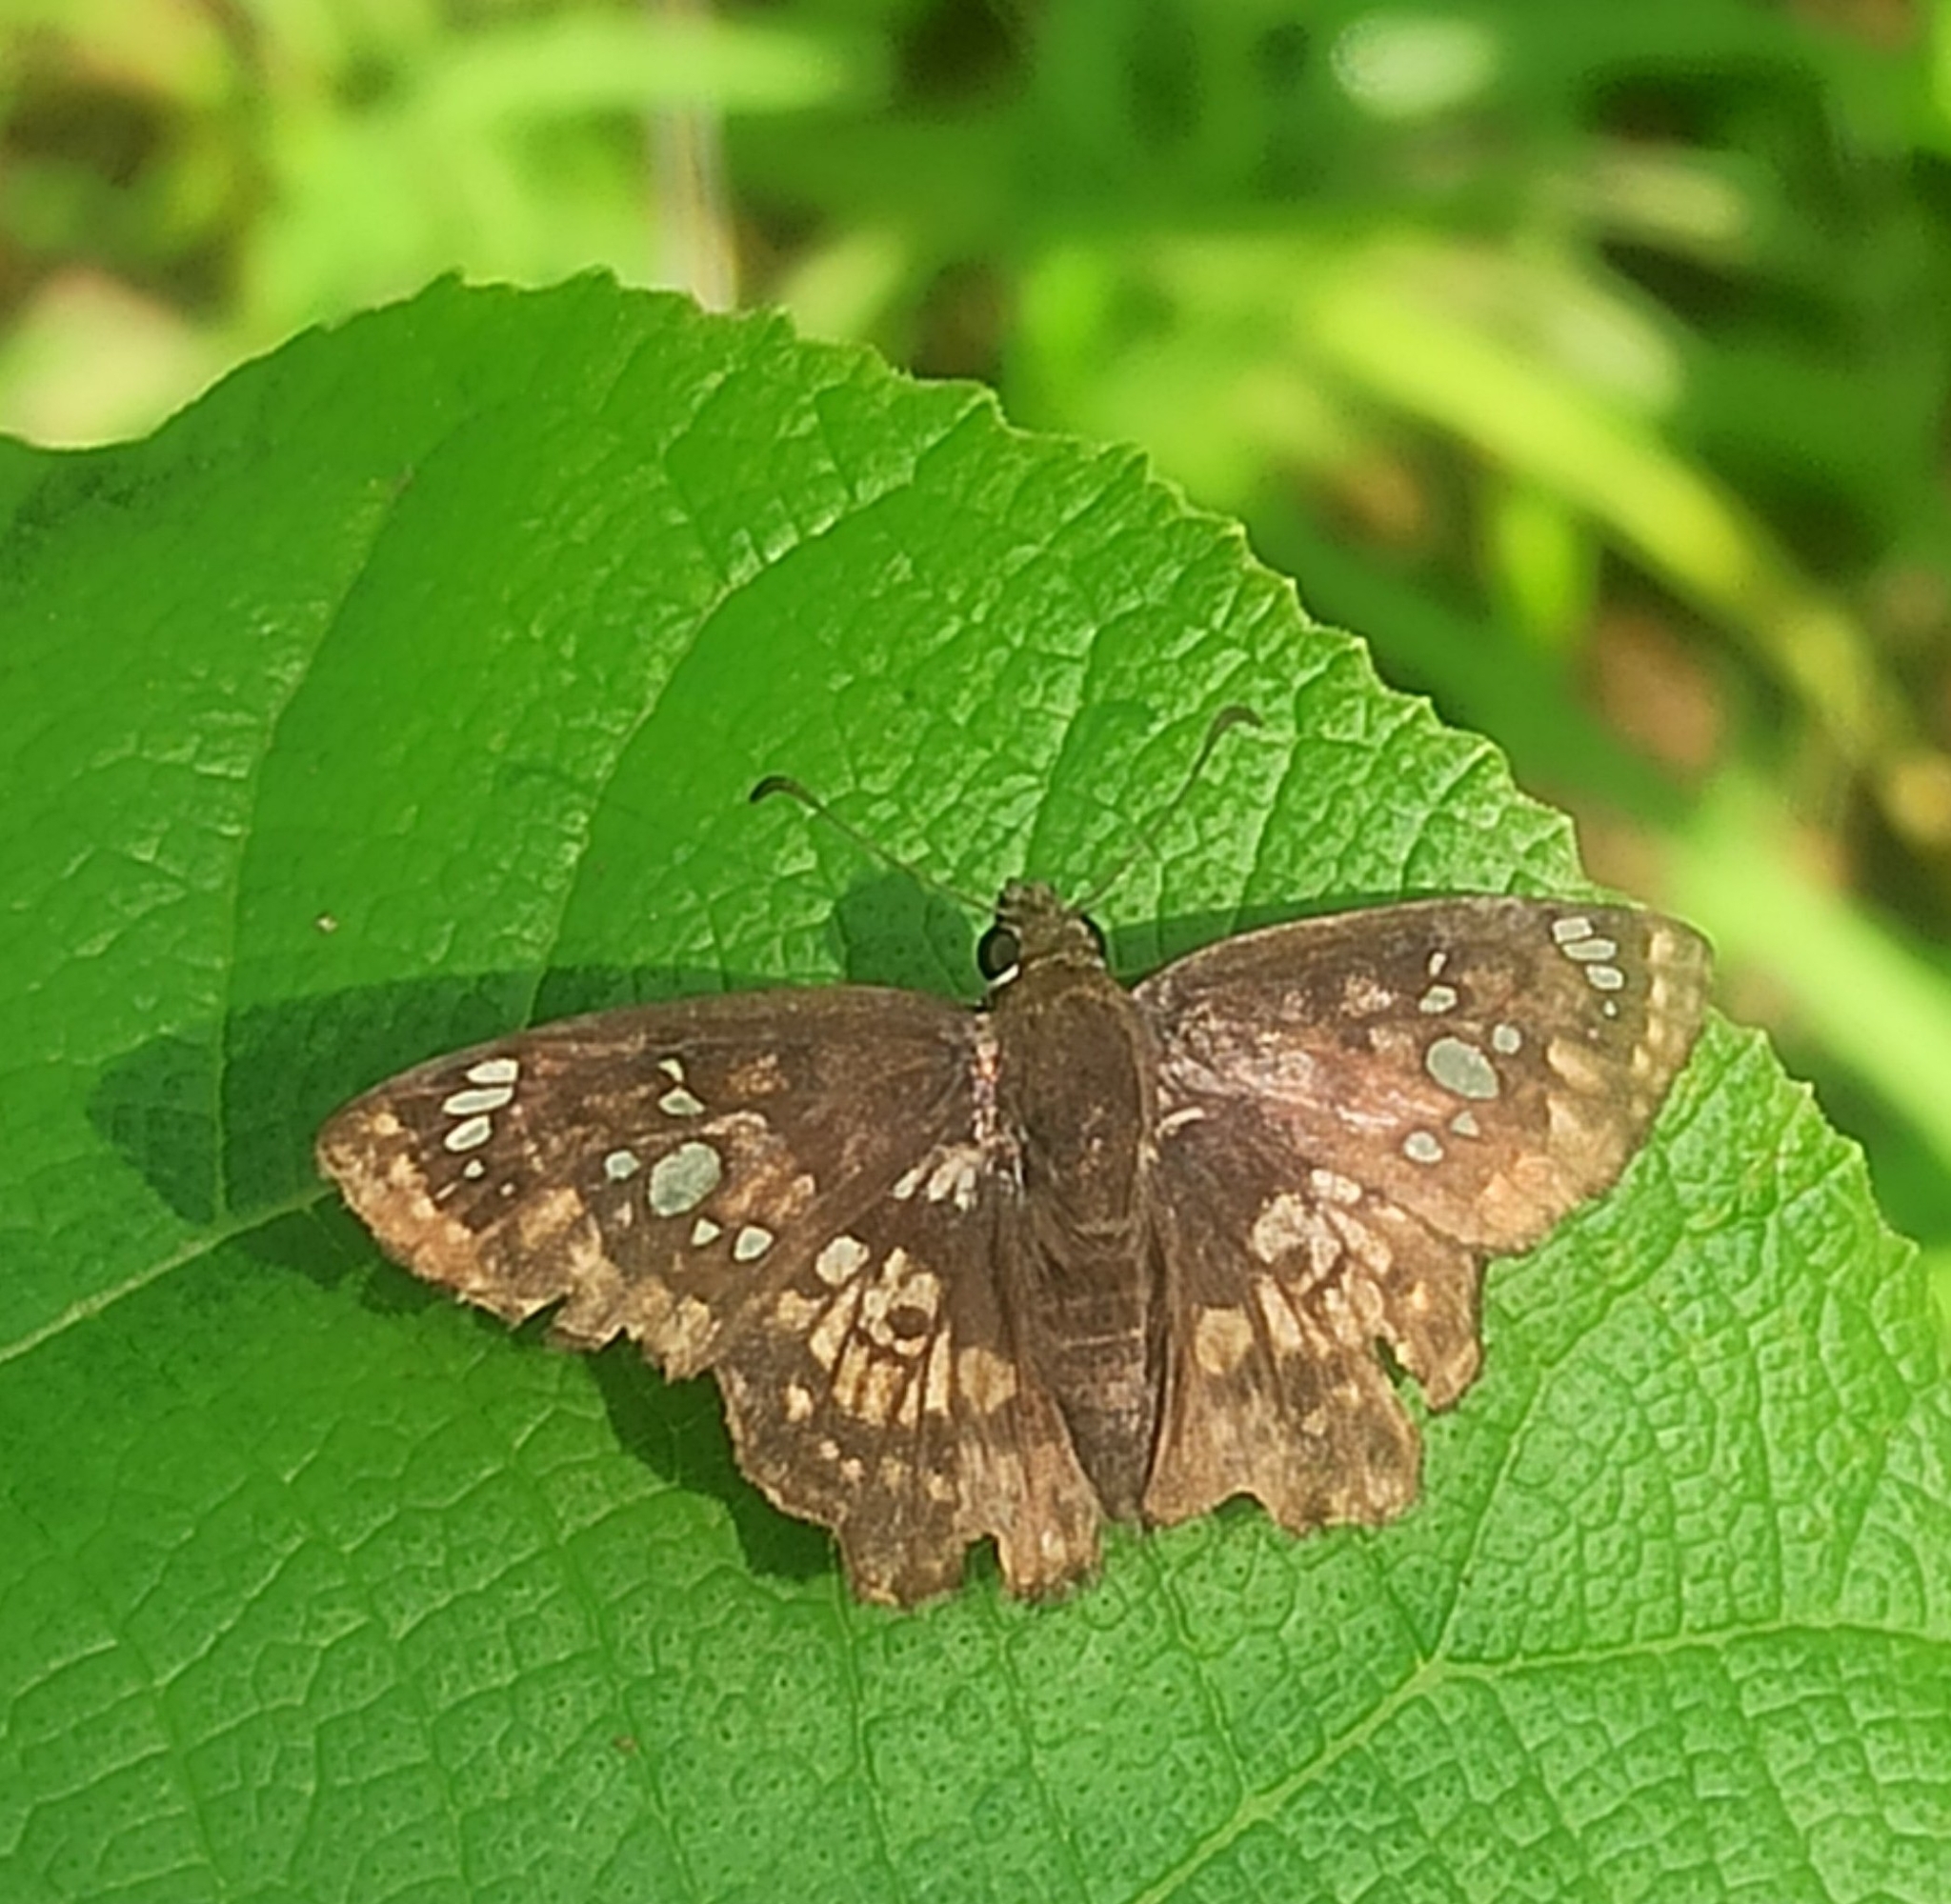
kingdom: Animalia
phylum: Arthropoda
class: Insecta
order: Lepidoptera
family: Hesperiidae
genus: Caprona
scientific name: Caprona ransonnettii
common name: Golden angle
